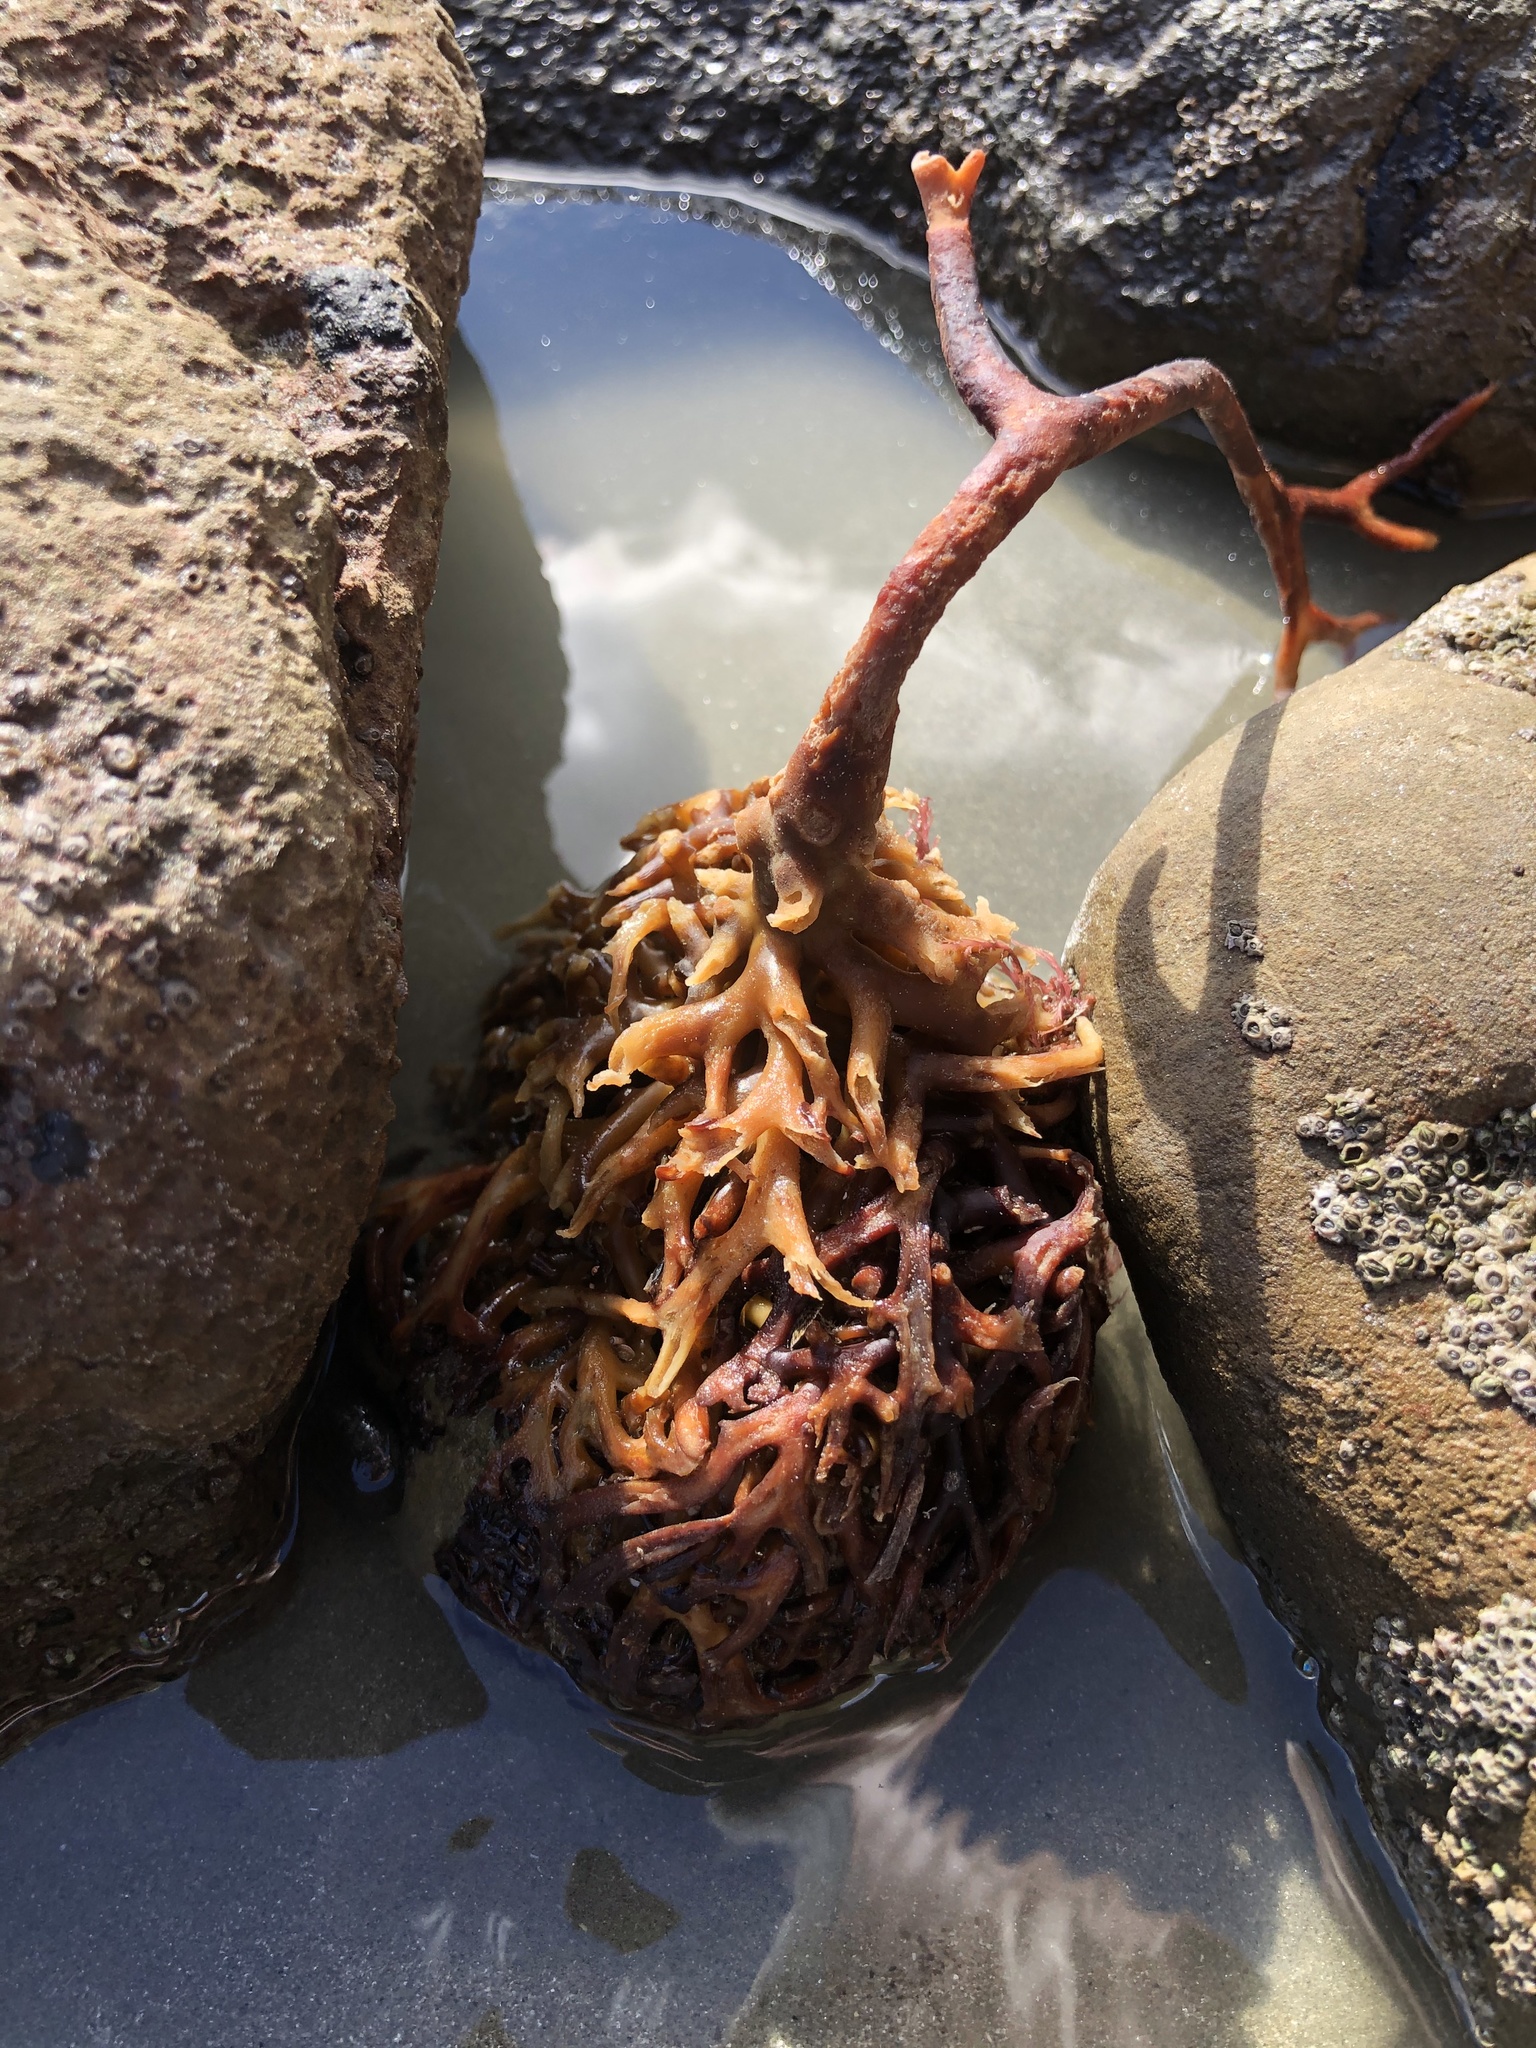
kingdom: Chromista
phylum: Ochrophyta
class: Phaeophyceae
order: Laminariales
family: Laminariaceae
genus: Macrocystis
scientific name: Macrocystis pyrifera
